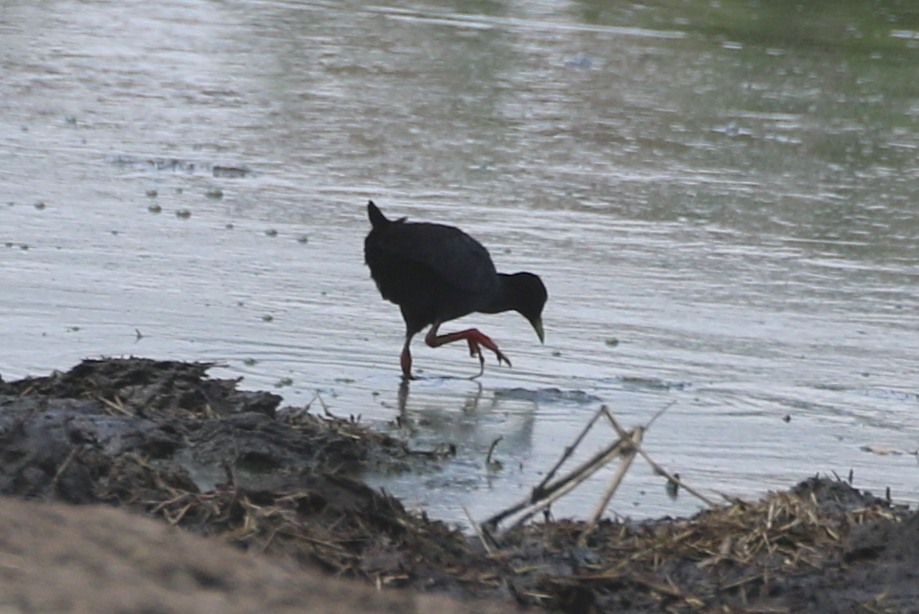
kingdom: Animalia
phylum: Chordata
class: Aves
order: Gruiformes
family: Rallidae
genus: Amaurornis
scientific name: Amaurornis flavirostra
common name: Black crake
